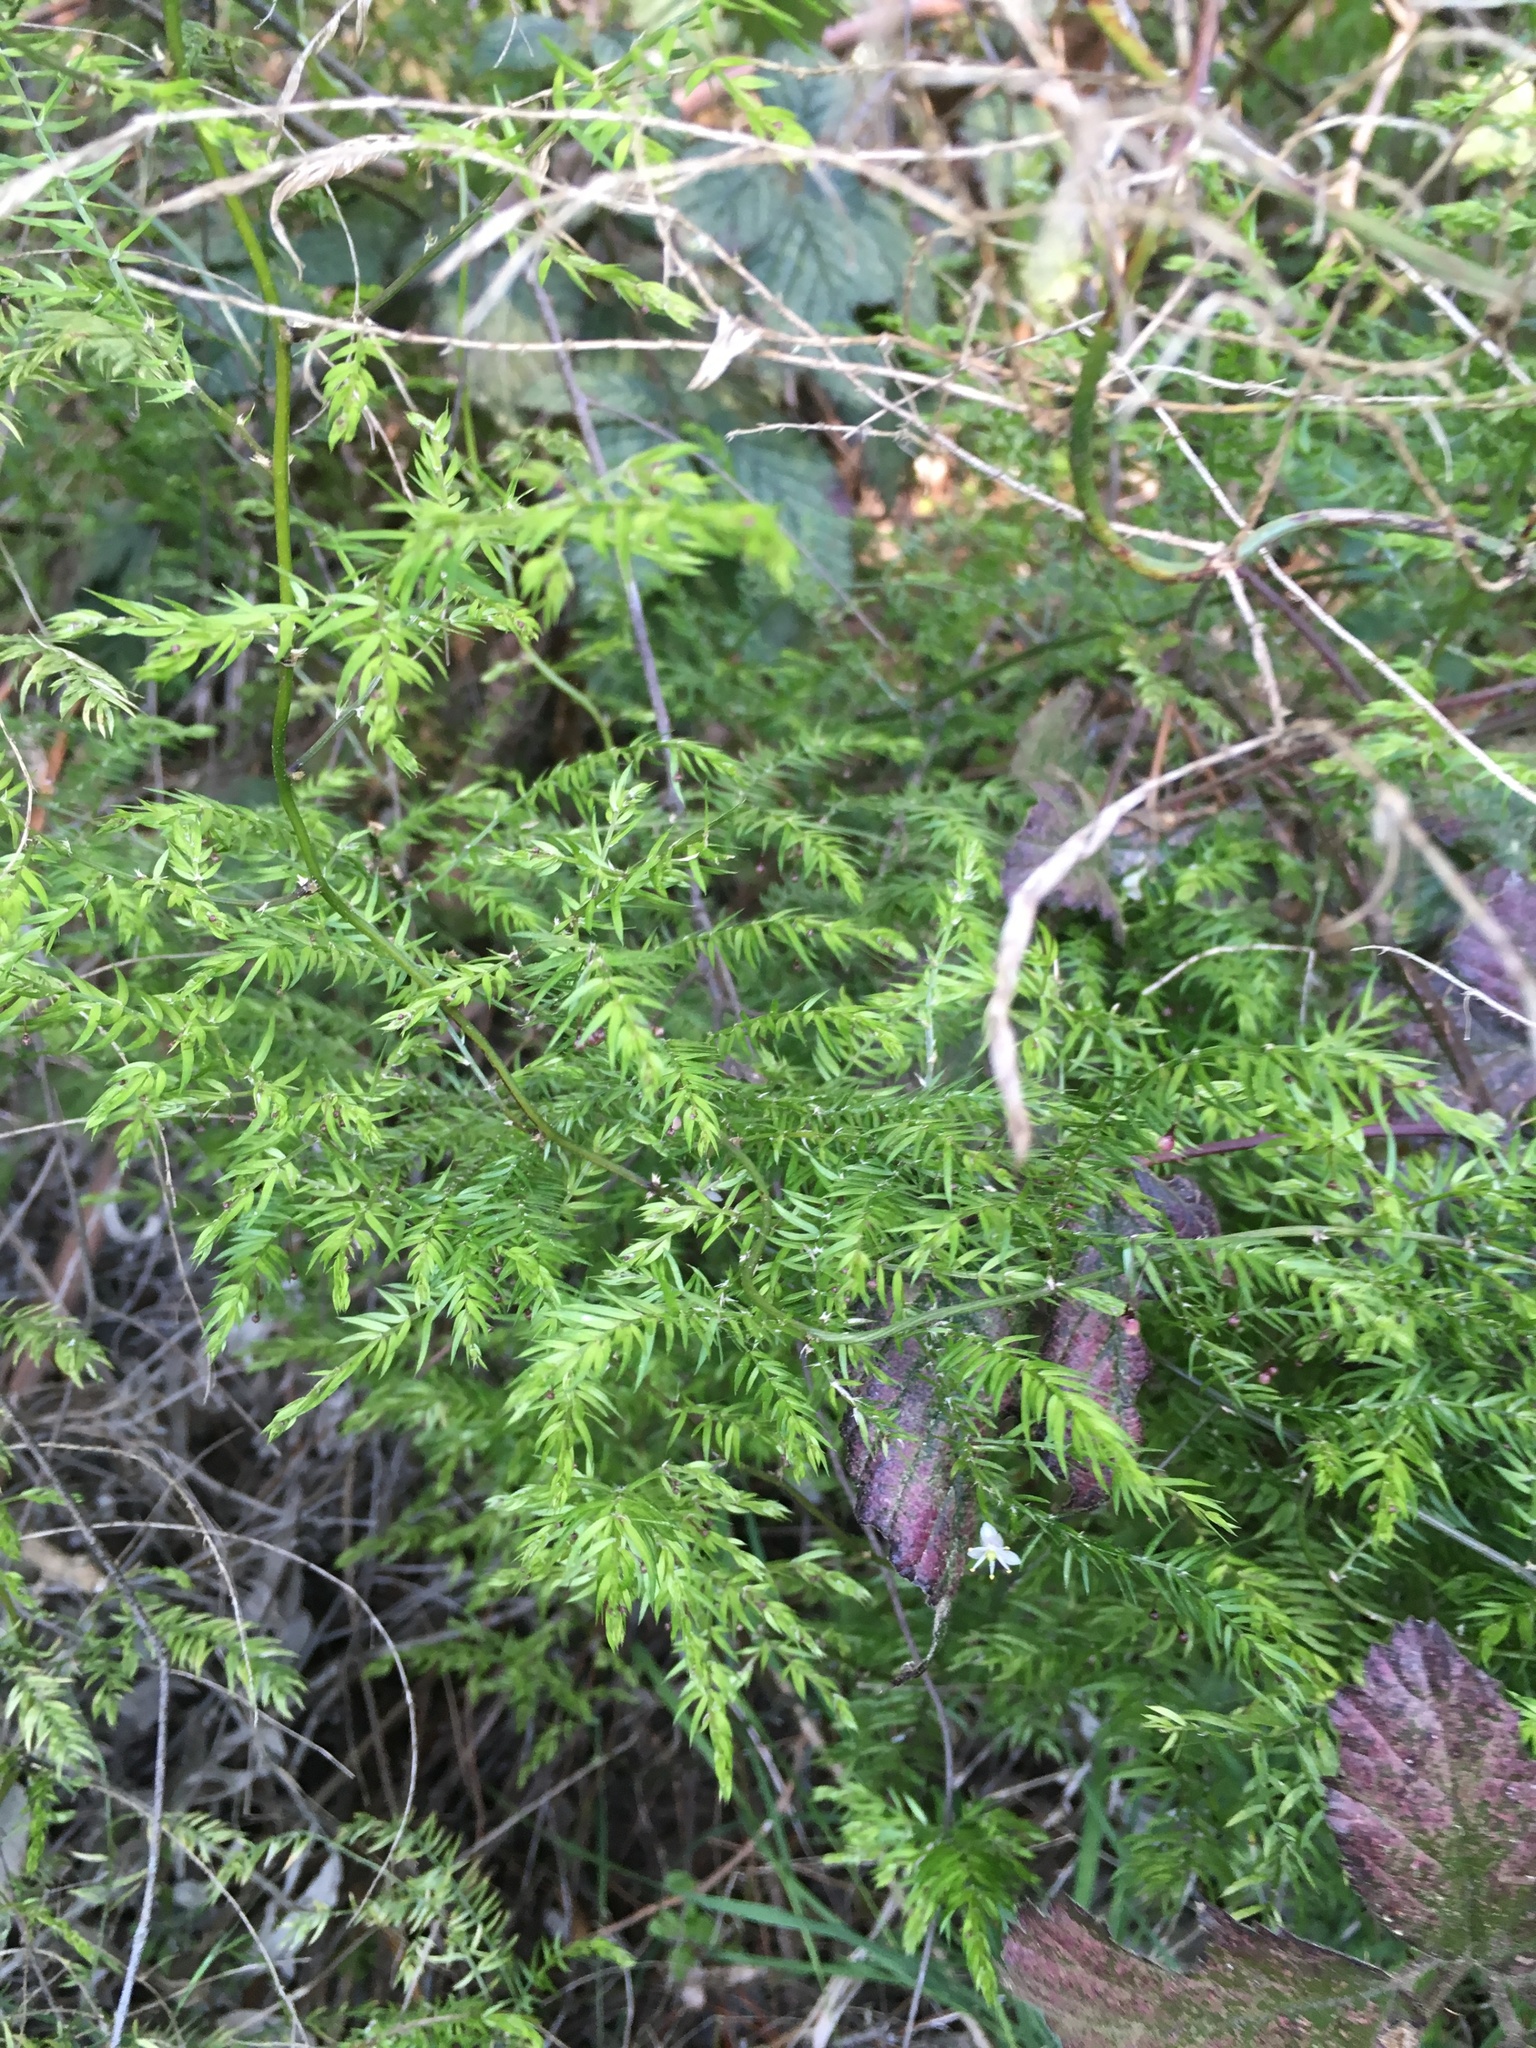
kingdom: Plantae
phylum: Tracheophyta
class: Liliopsida
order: Asparagales
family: Asparagaceae
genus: Asparagus
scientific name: Asparagus scandens
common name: Asparagus-fern
